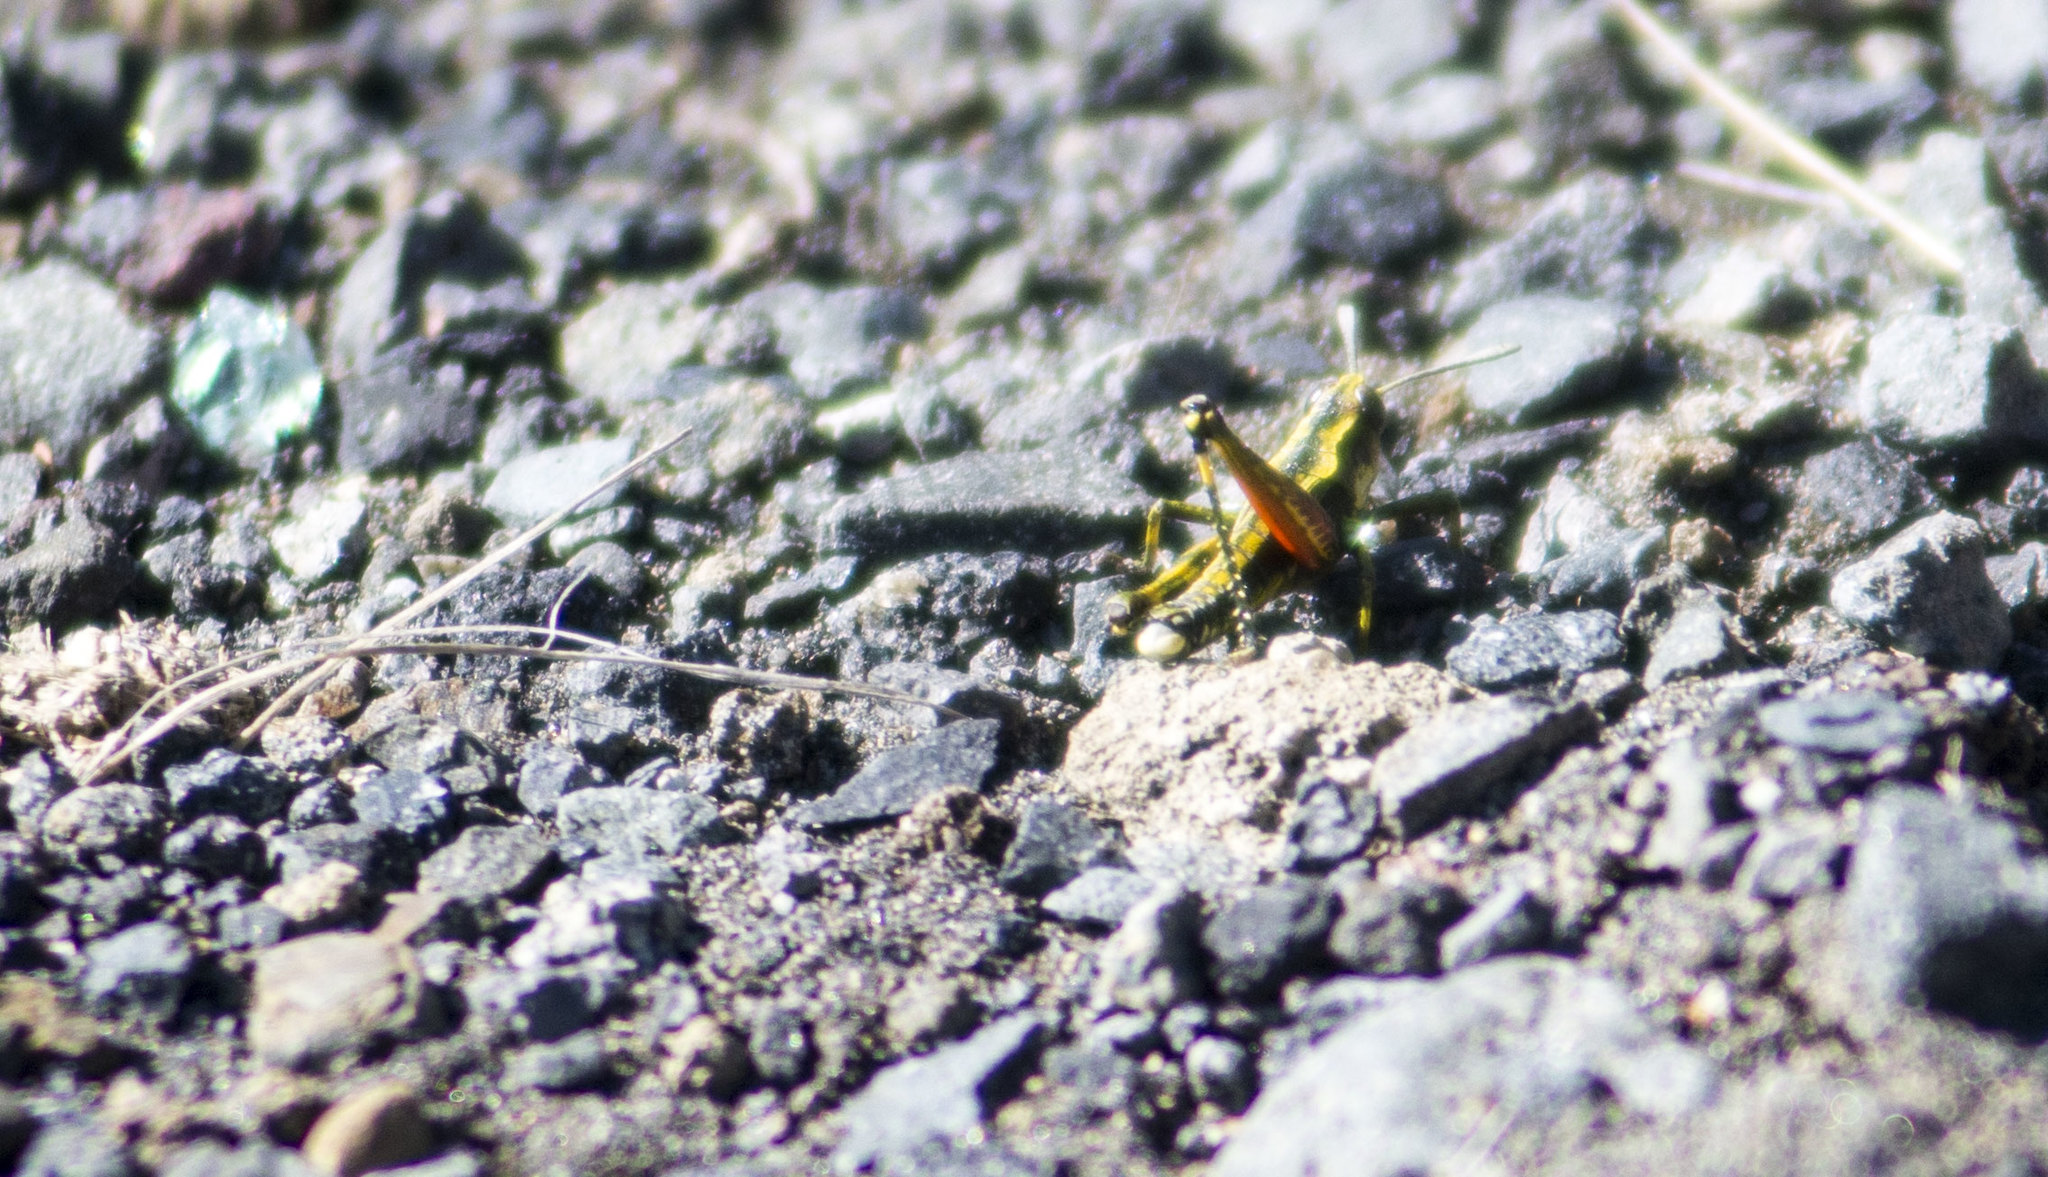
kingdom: Animalia
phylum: Arthropoda
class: Insecta
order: Orthoptera
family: Acrididae
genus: Sigaus
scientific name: Sigaus piliferus
